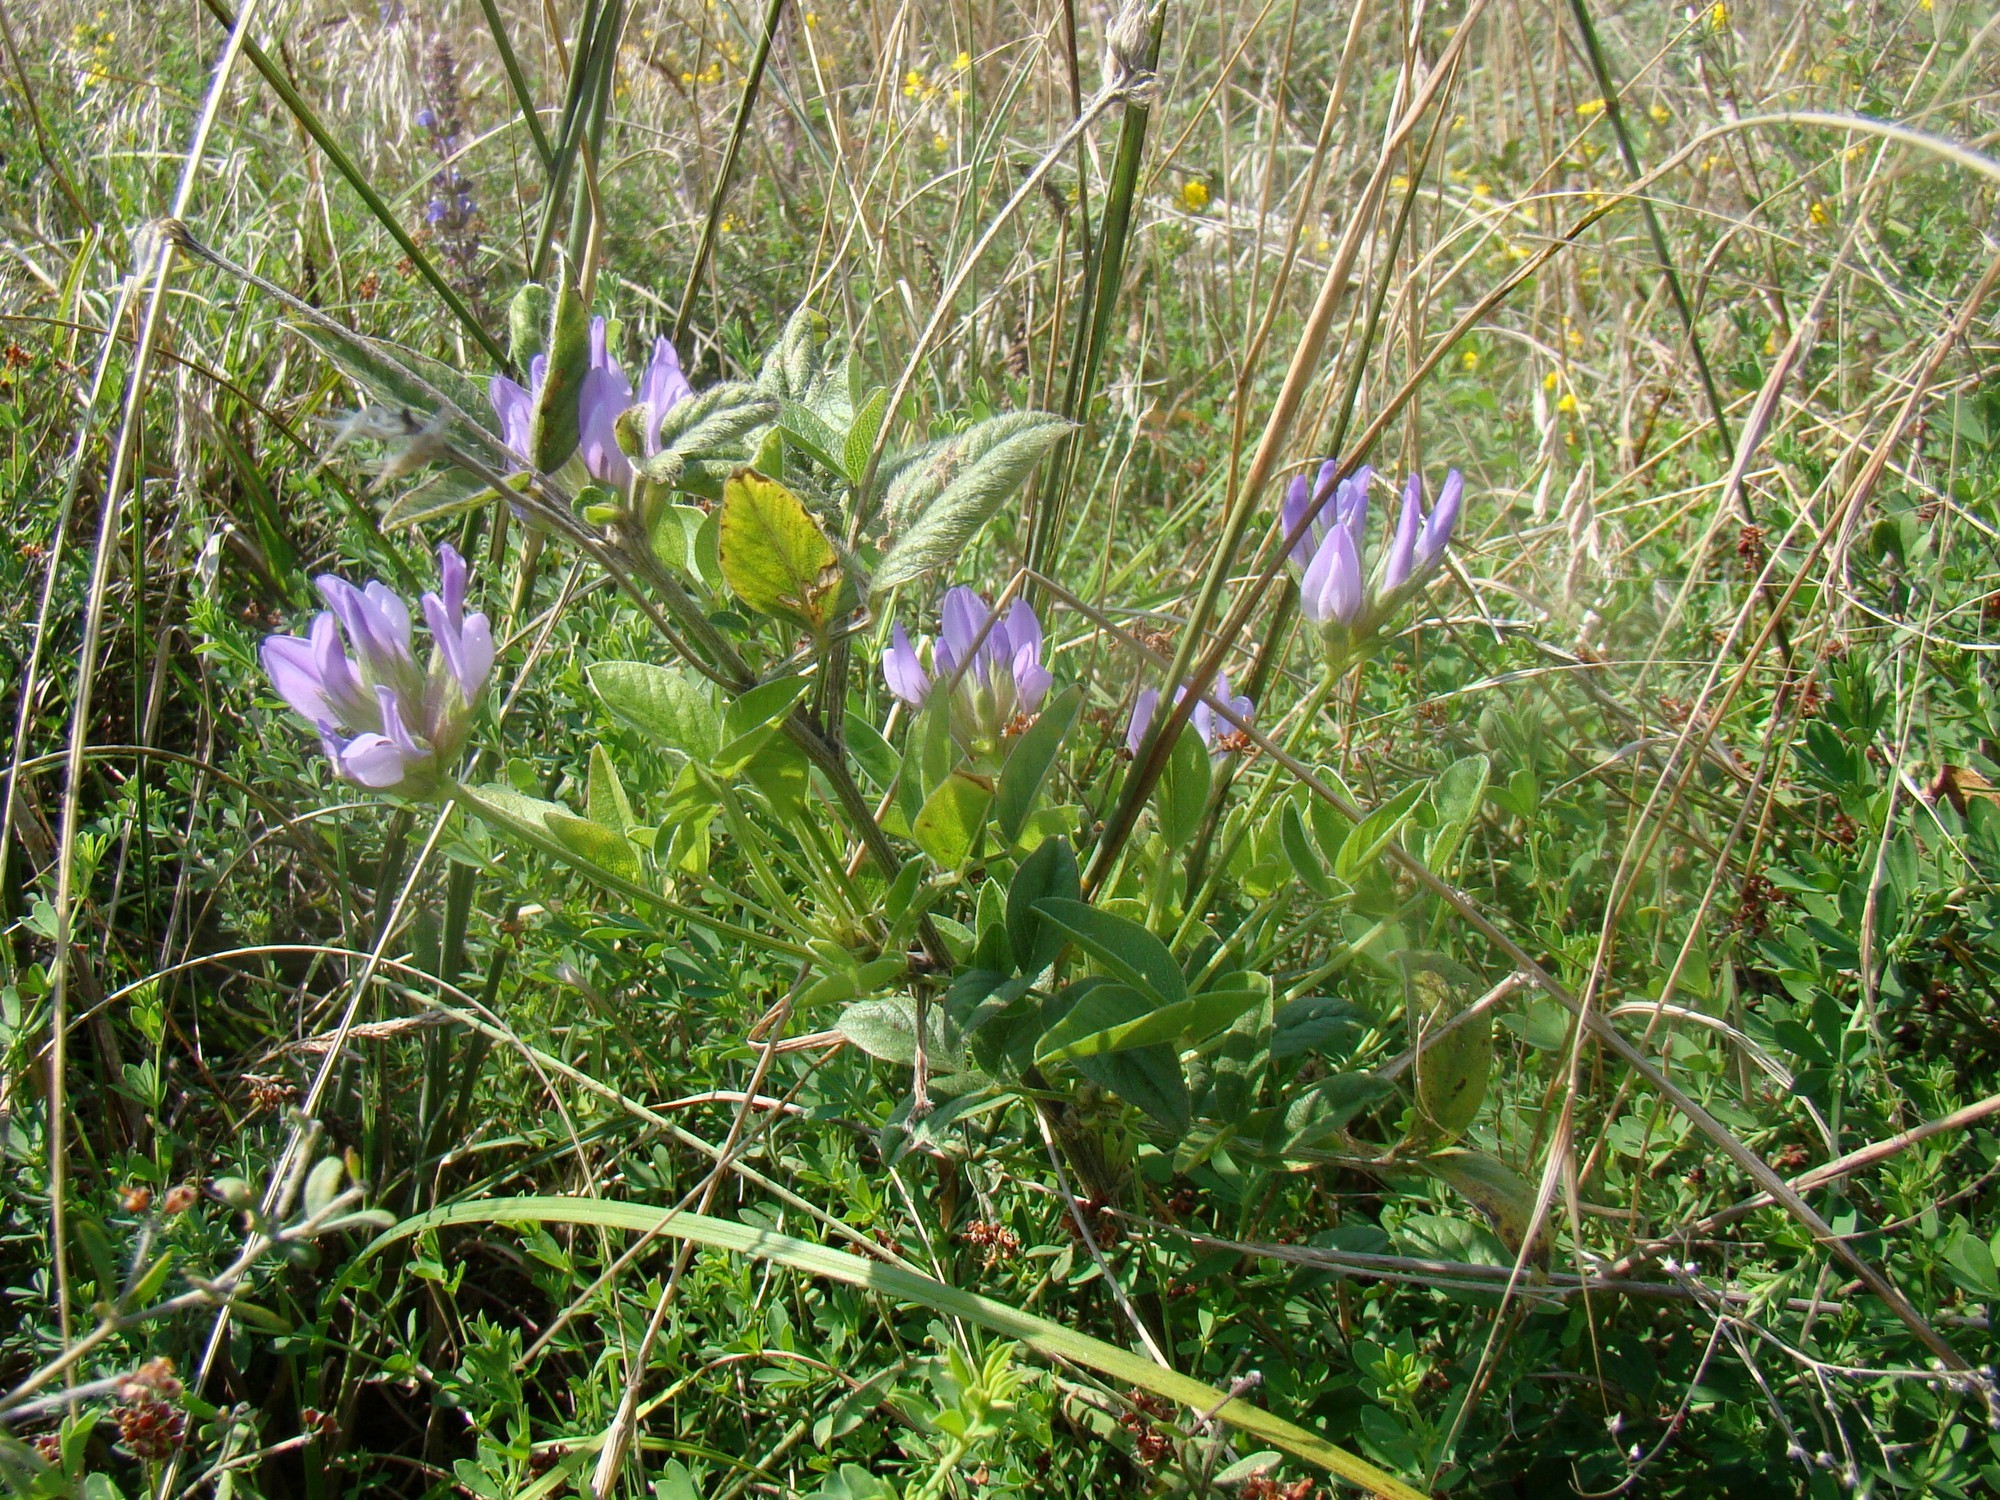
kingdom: Plantae
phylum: Tracheophyta
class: Magnoliopsida
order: Fabales
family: Fabaceae
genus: Bituminaria
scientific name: Bituminaria bituminosa
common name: Arabian pea
